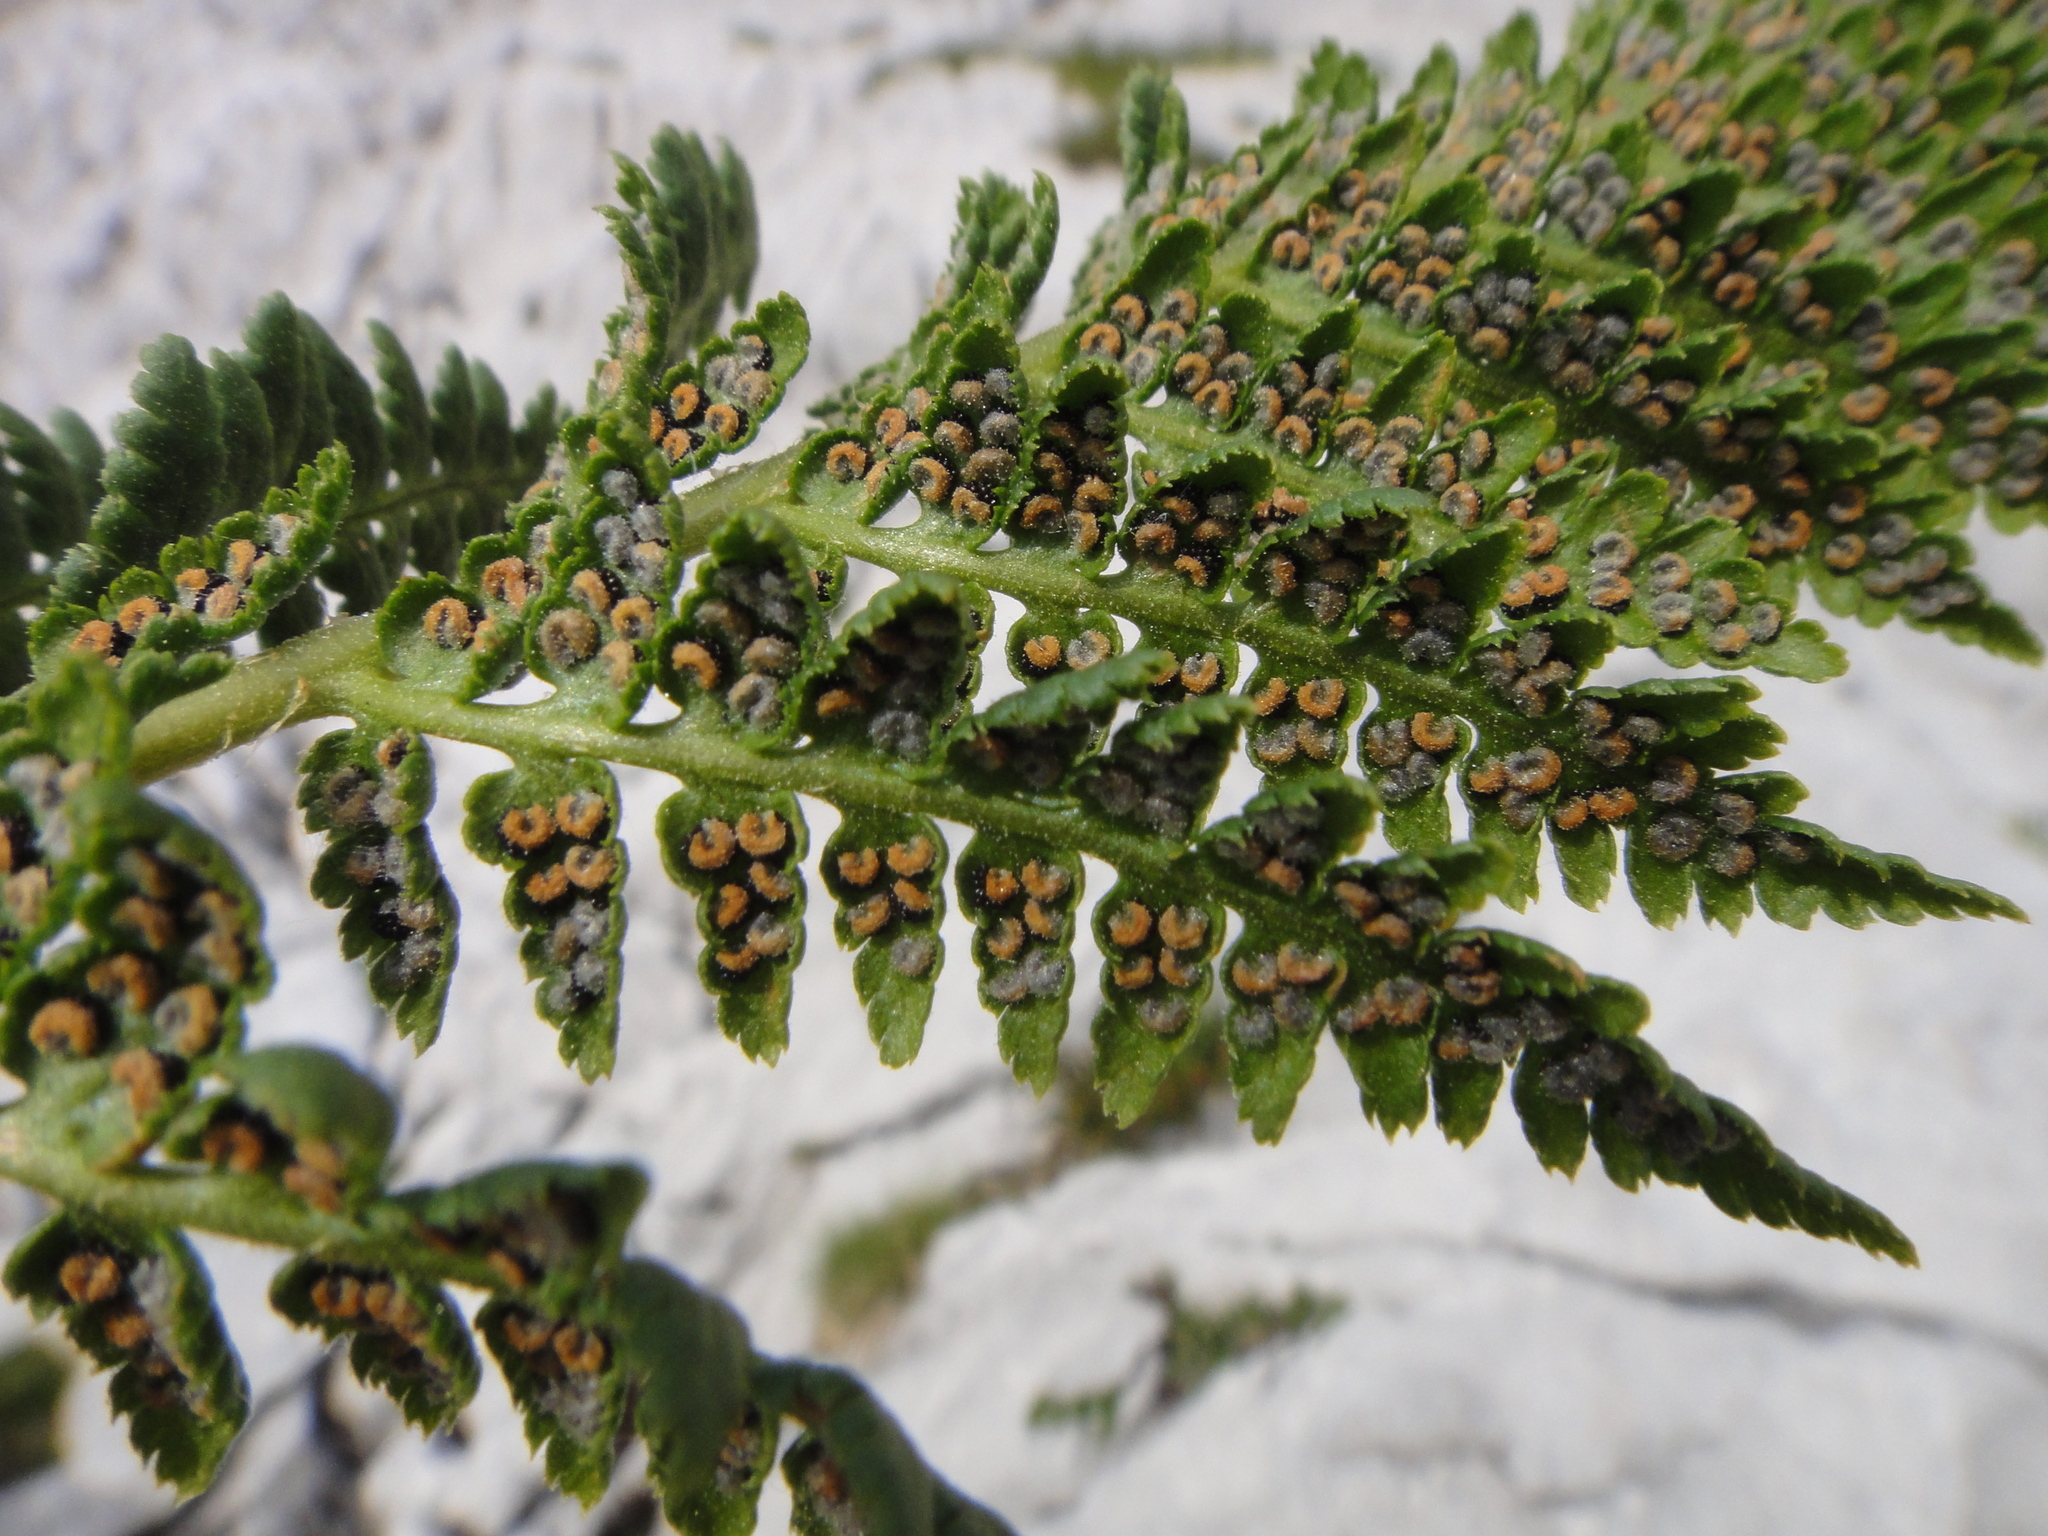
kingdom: Plantae
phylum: Tracheophyta
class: Polypodiopsida
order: Polypodiales
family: Dryopteridaceae
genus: Dryopteris
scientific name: Dryopteris villarii
